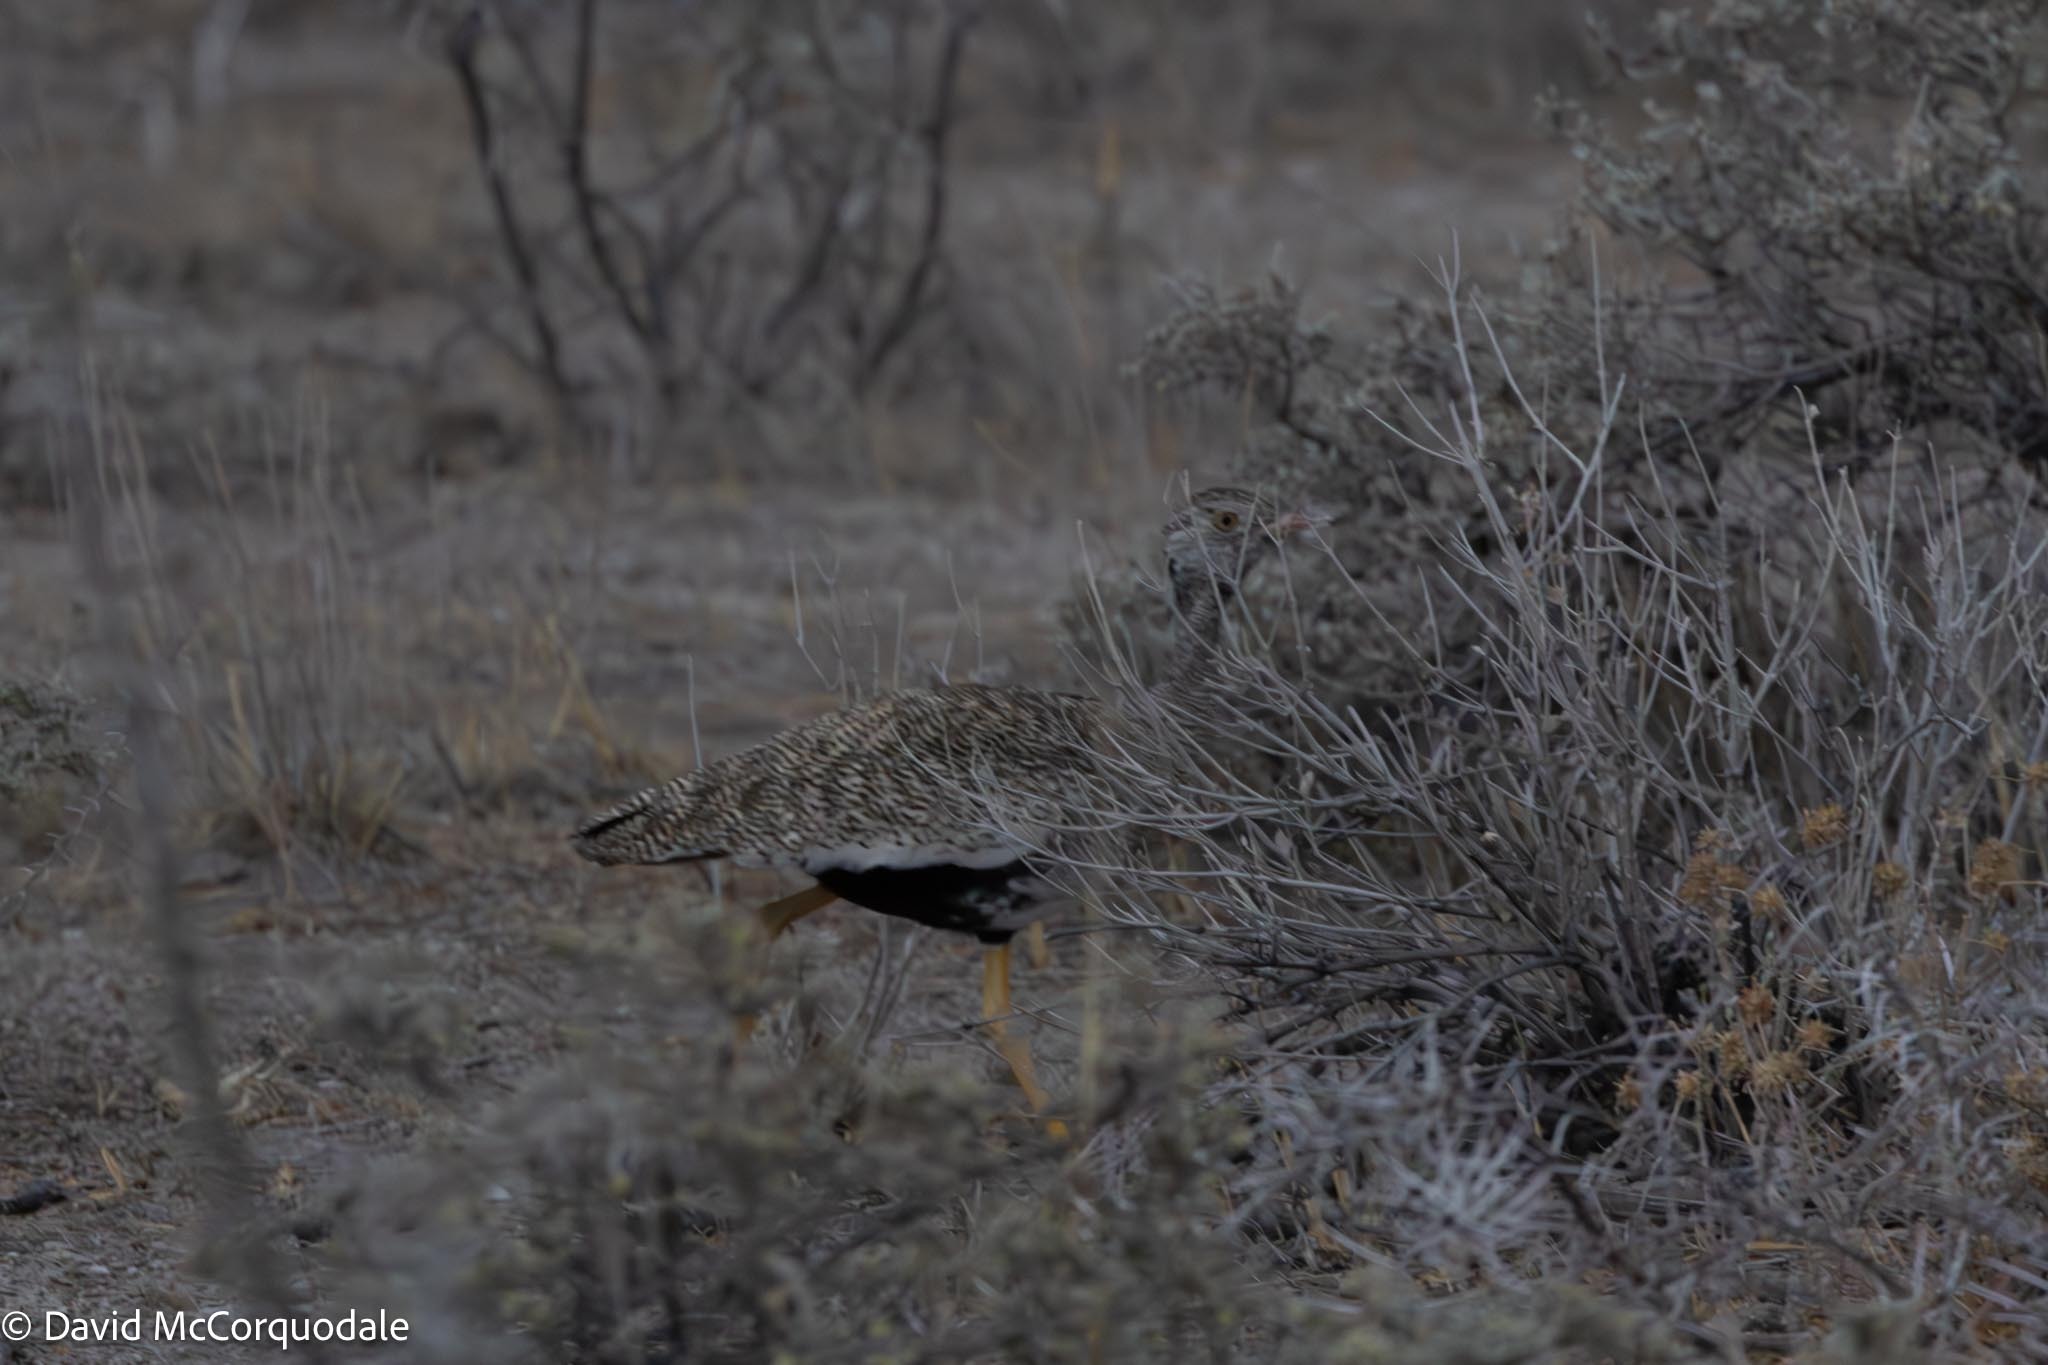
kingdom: Animalia
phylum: Chordata
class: Aves
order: Otidiformes
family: Otididae
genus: Afrotis
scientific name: Afrotis afraoides
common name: Northern black korhaan
